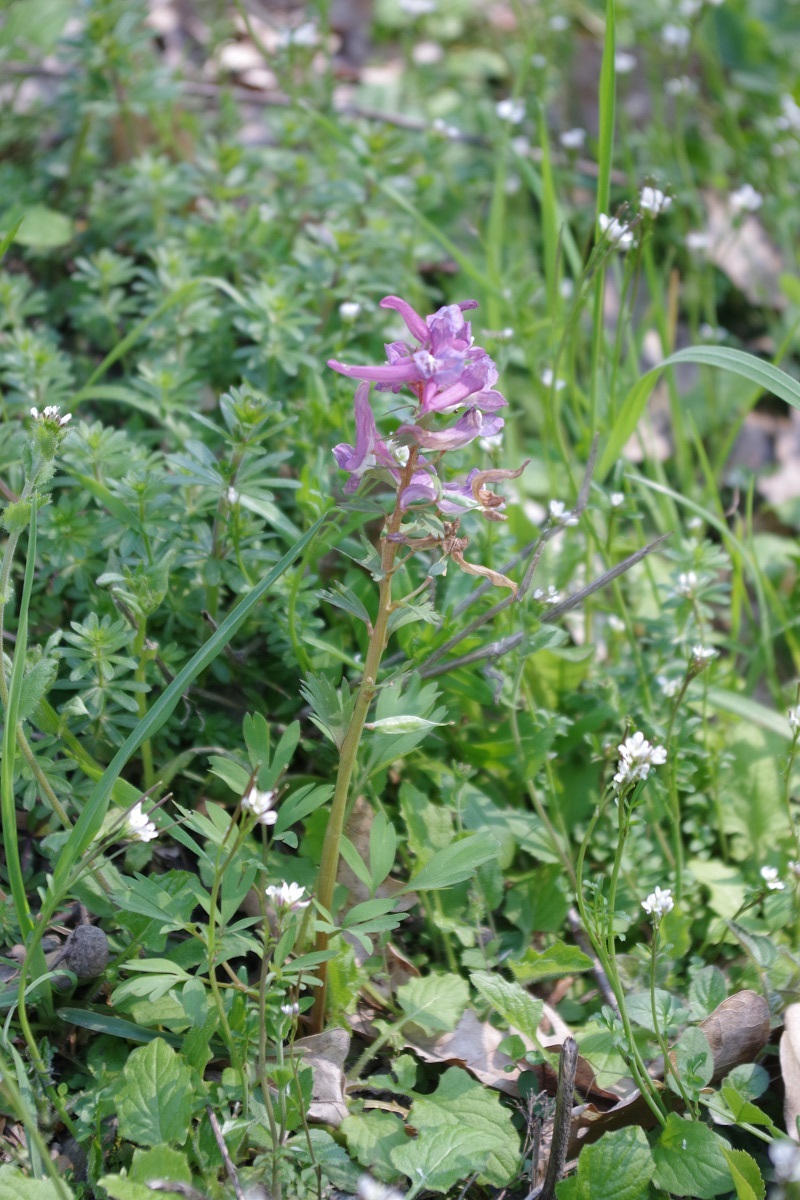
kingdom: Plantae
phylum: Tracheophyta
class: Magnoliopsida
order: Ranunculales
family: Papaveraceae
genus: Corydalis
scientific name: Corydalis solida
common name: Bird-in-a-bush
